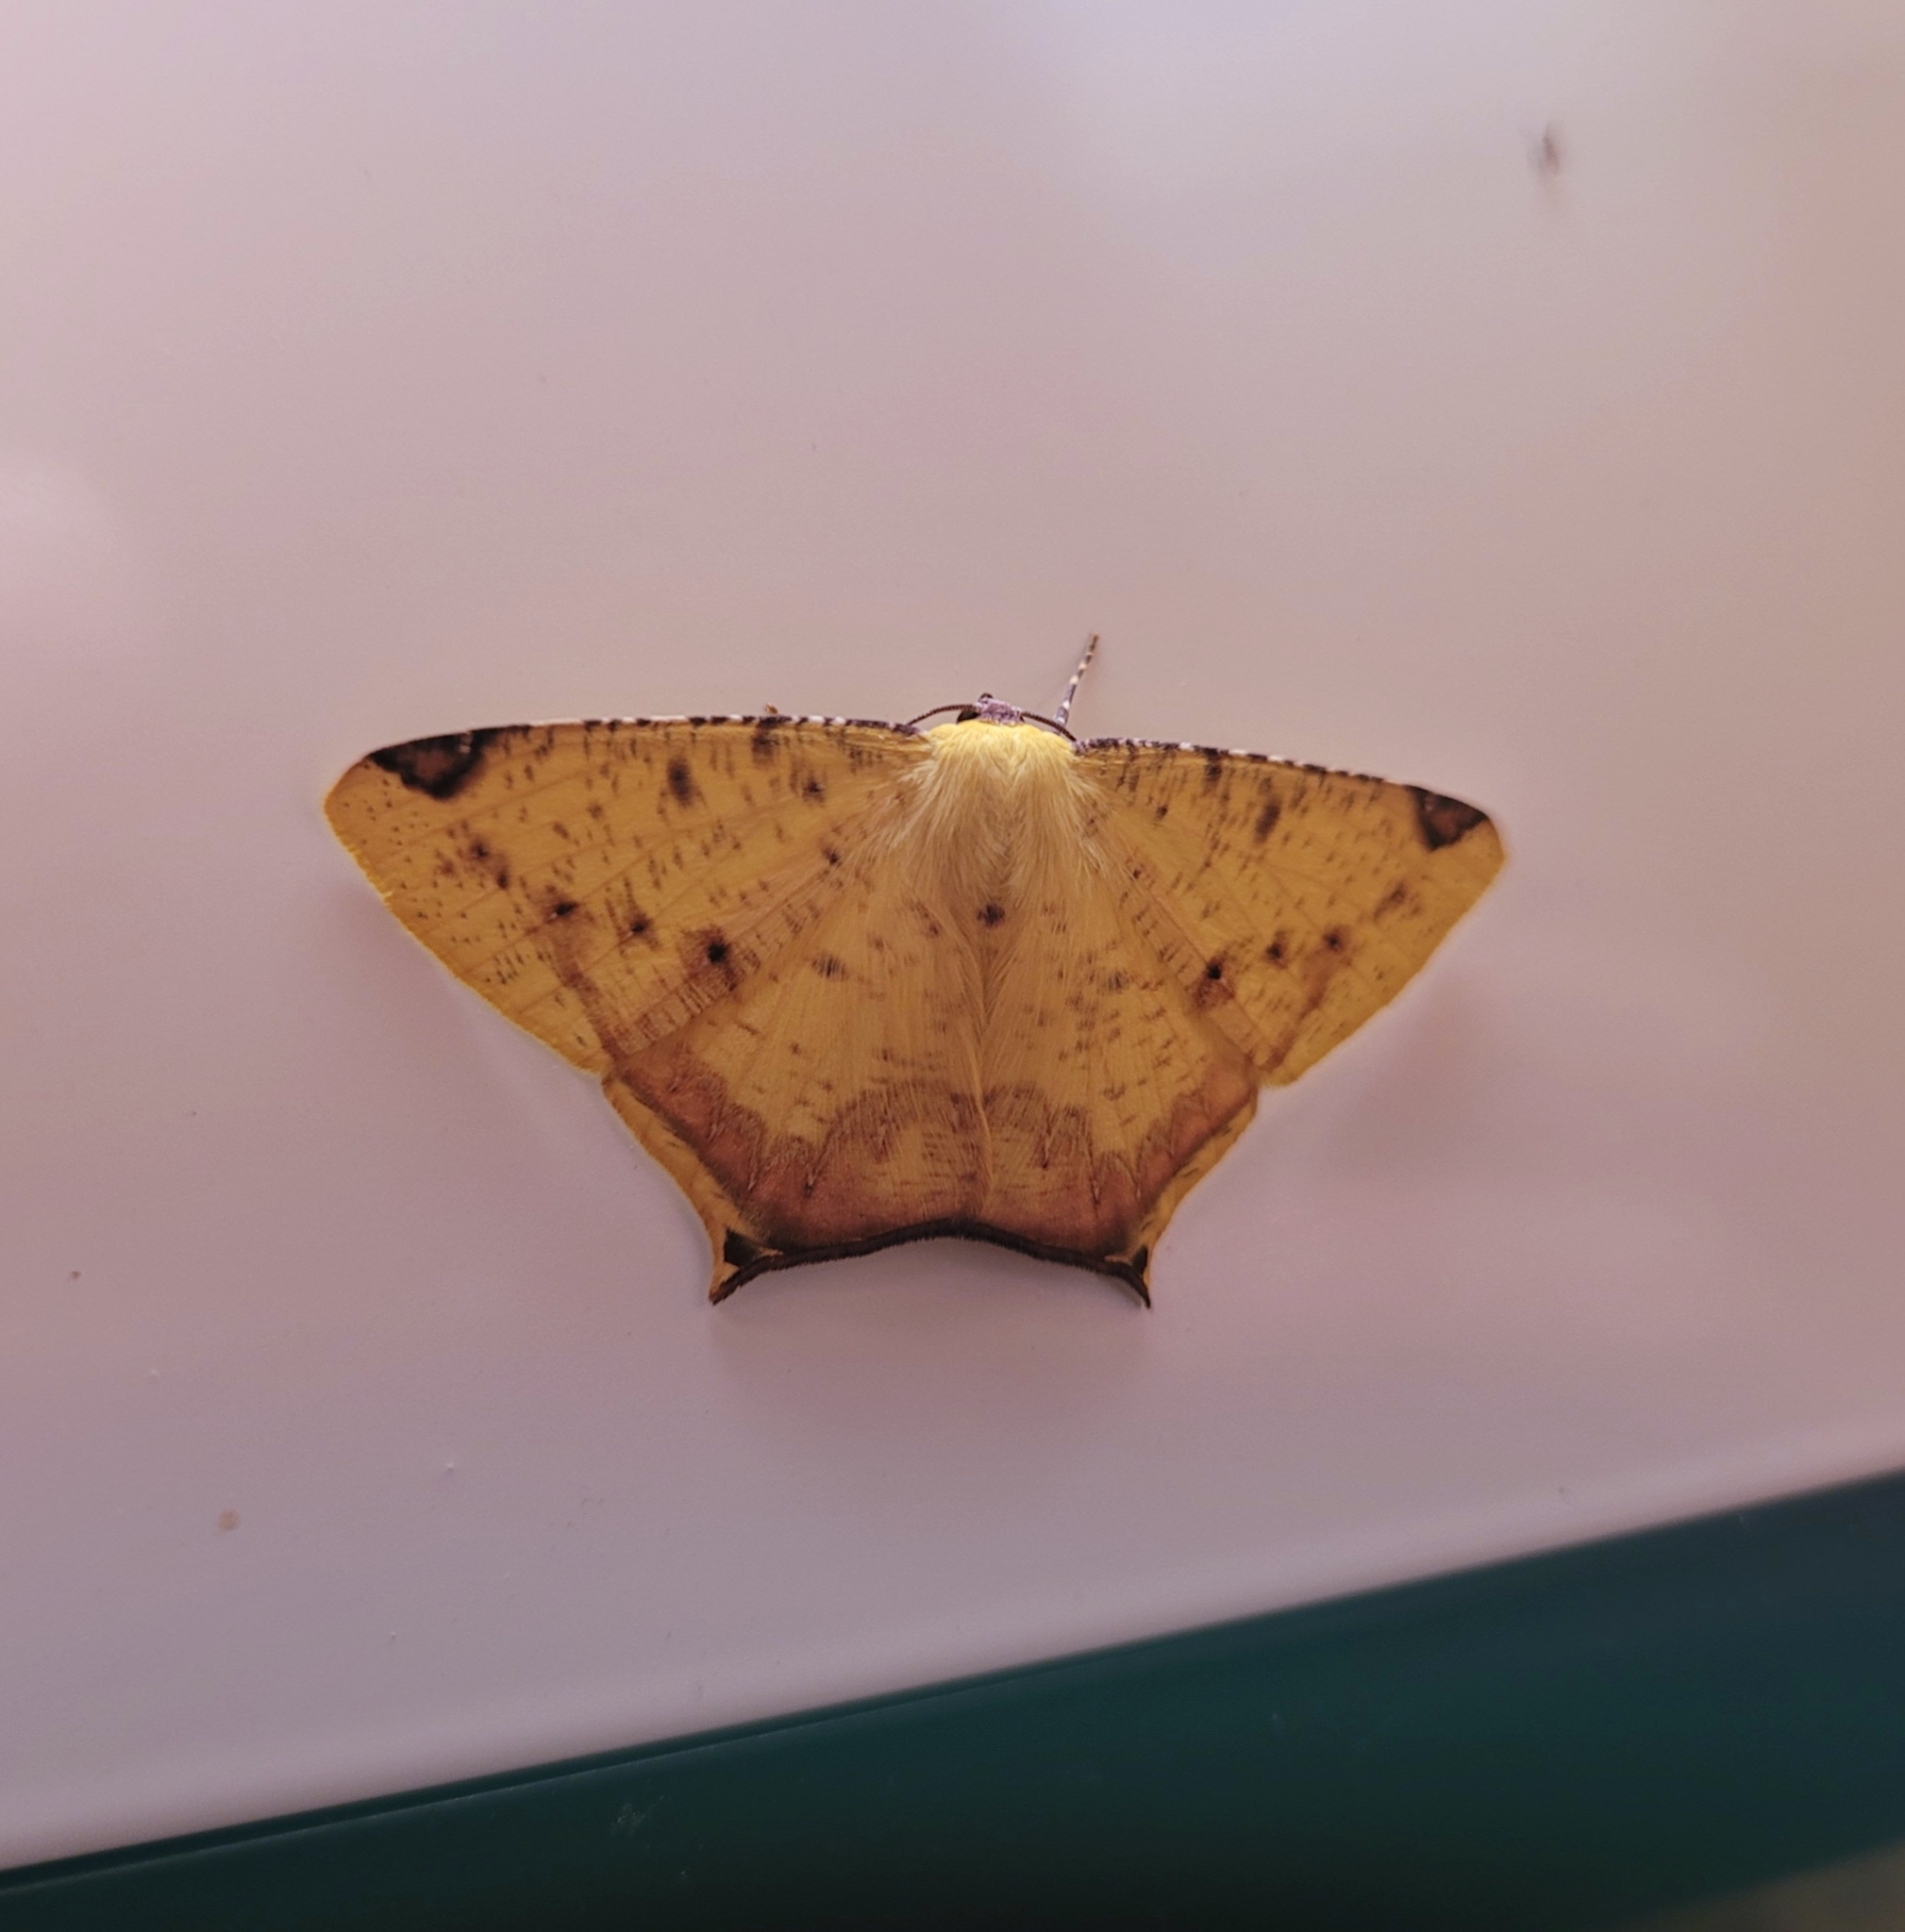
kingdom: Animalia
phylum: Arthropoda
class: Insecta
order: Lepidoptera
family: Geometridae
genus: Nepheloleuca
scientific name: Nepheloleuca politia
